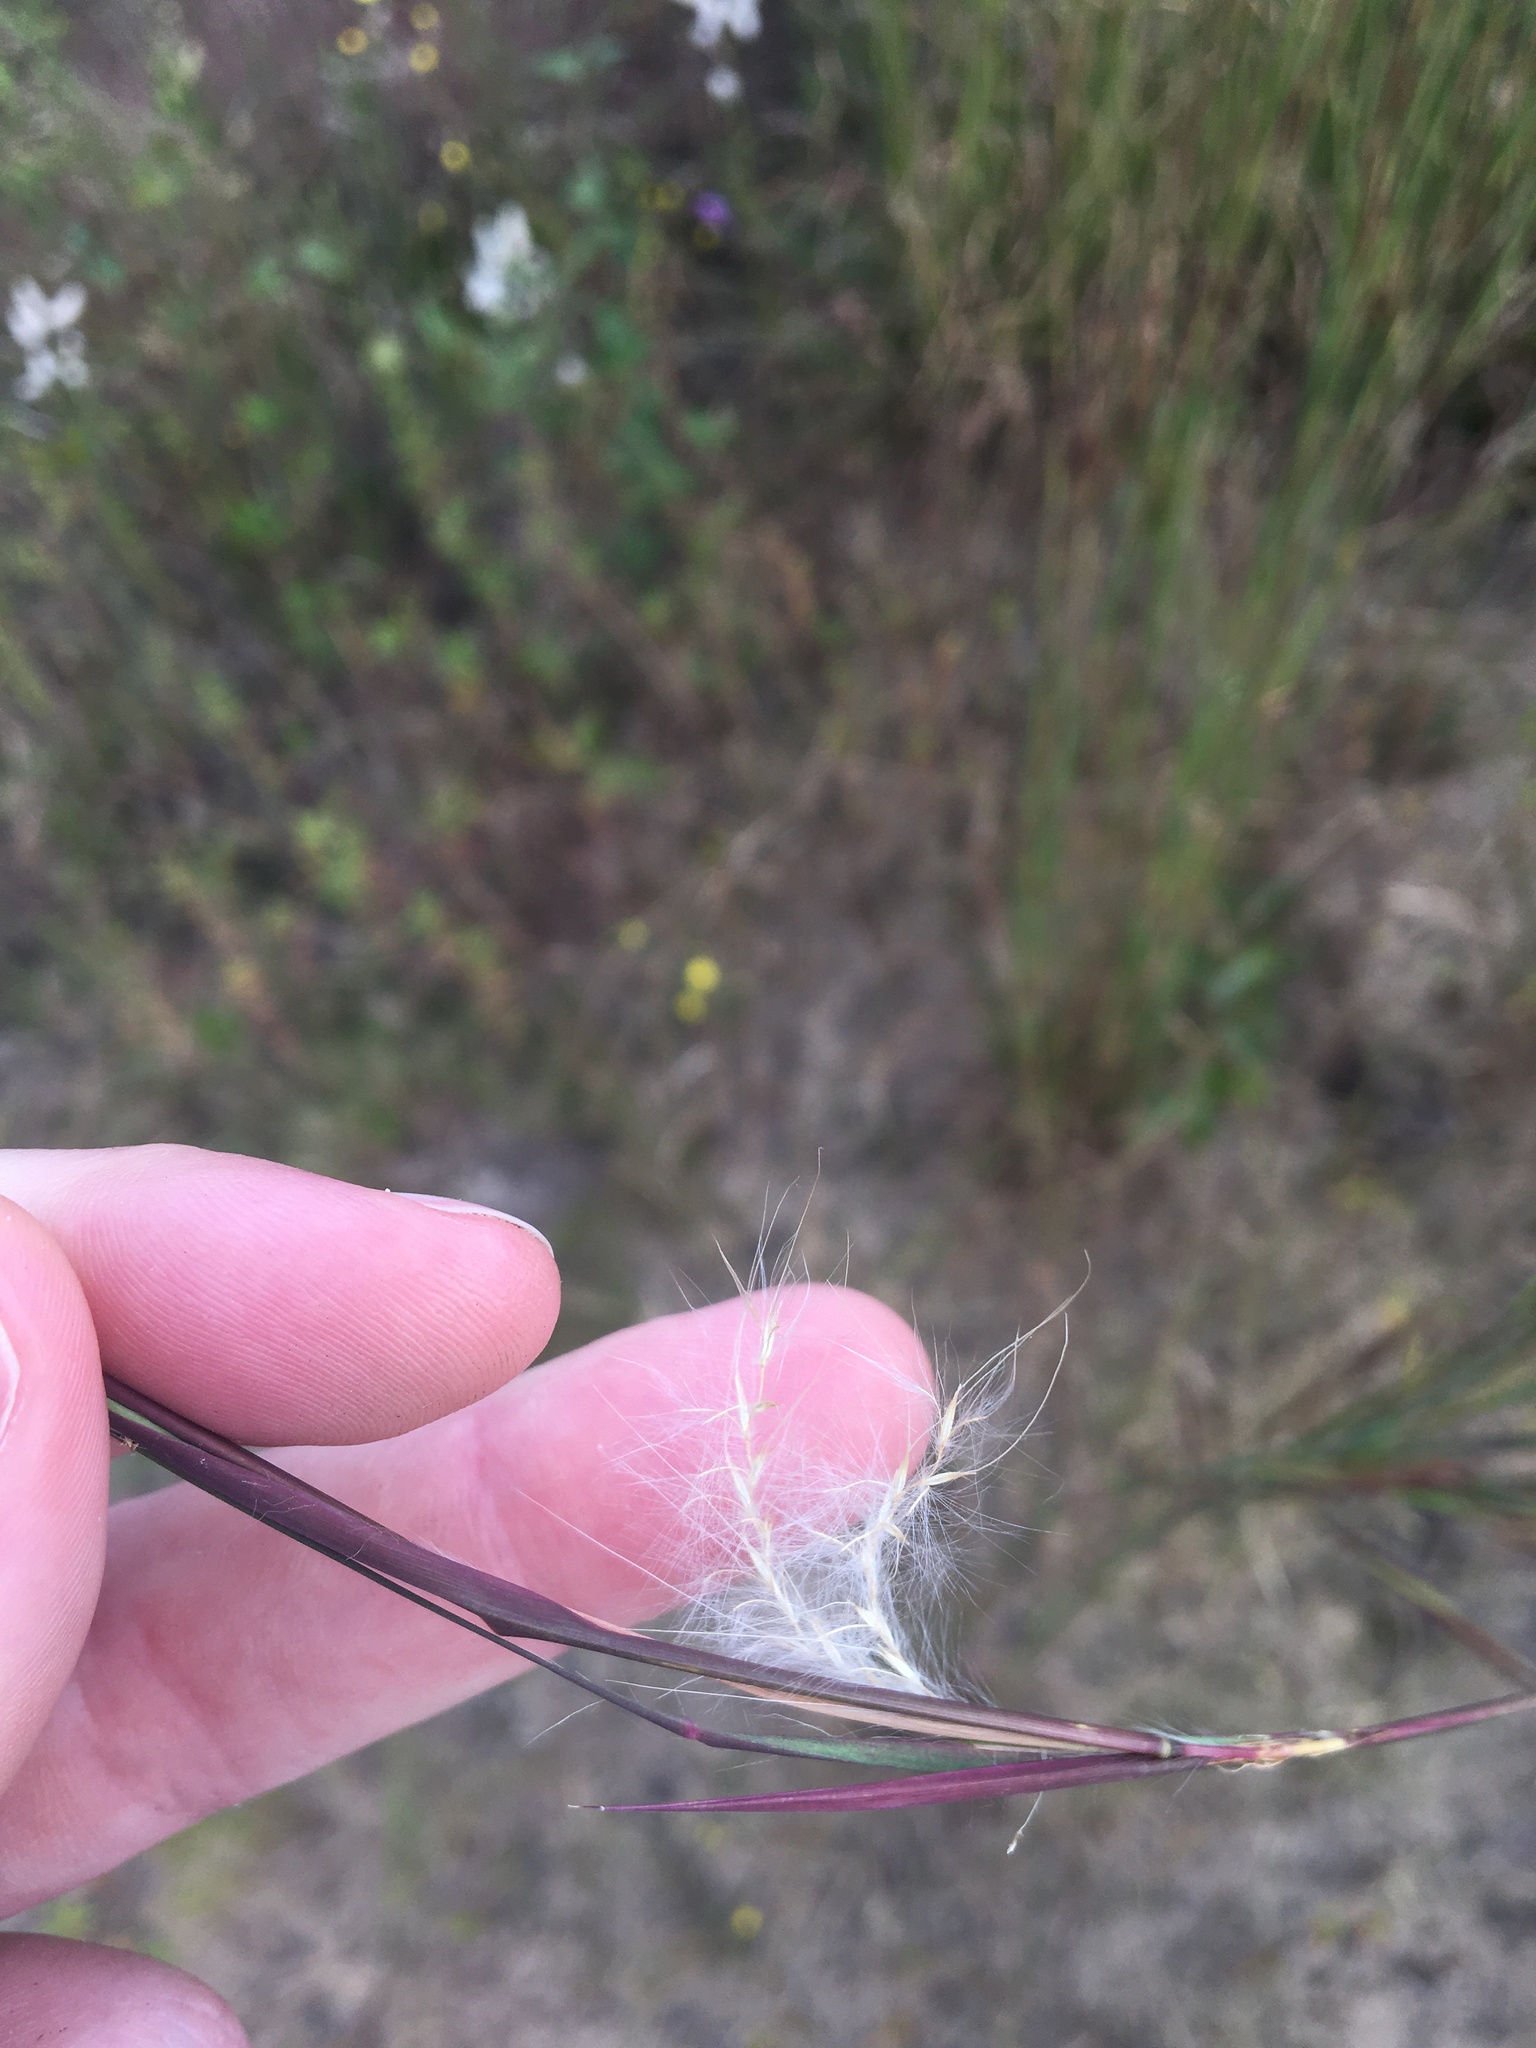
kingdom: Plantae
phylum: Tracheophyta
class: Liliopsida
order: Poales
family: Poaceae
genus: Andropogon
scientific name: Andropogon ternarius
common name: Split bluestem
